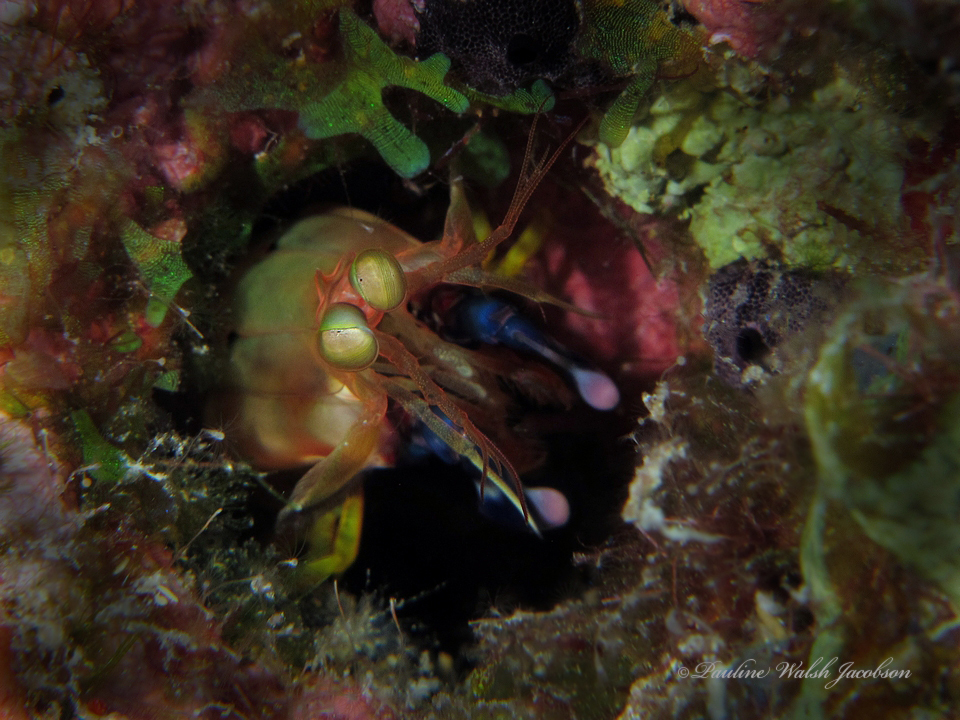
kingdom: Animalia
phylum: Arthropoda
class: Malacostraca
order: Stomatopoda
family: Gonodactylidae
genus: Neogonodactylus
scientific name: Neogonodactylus curacaoensis
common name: Dark mantis
